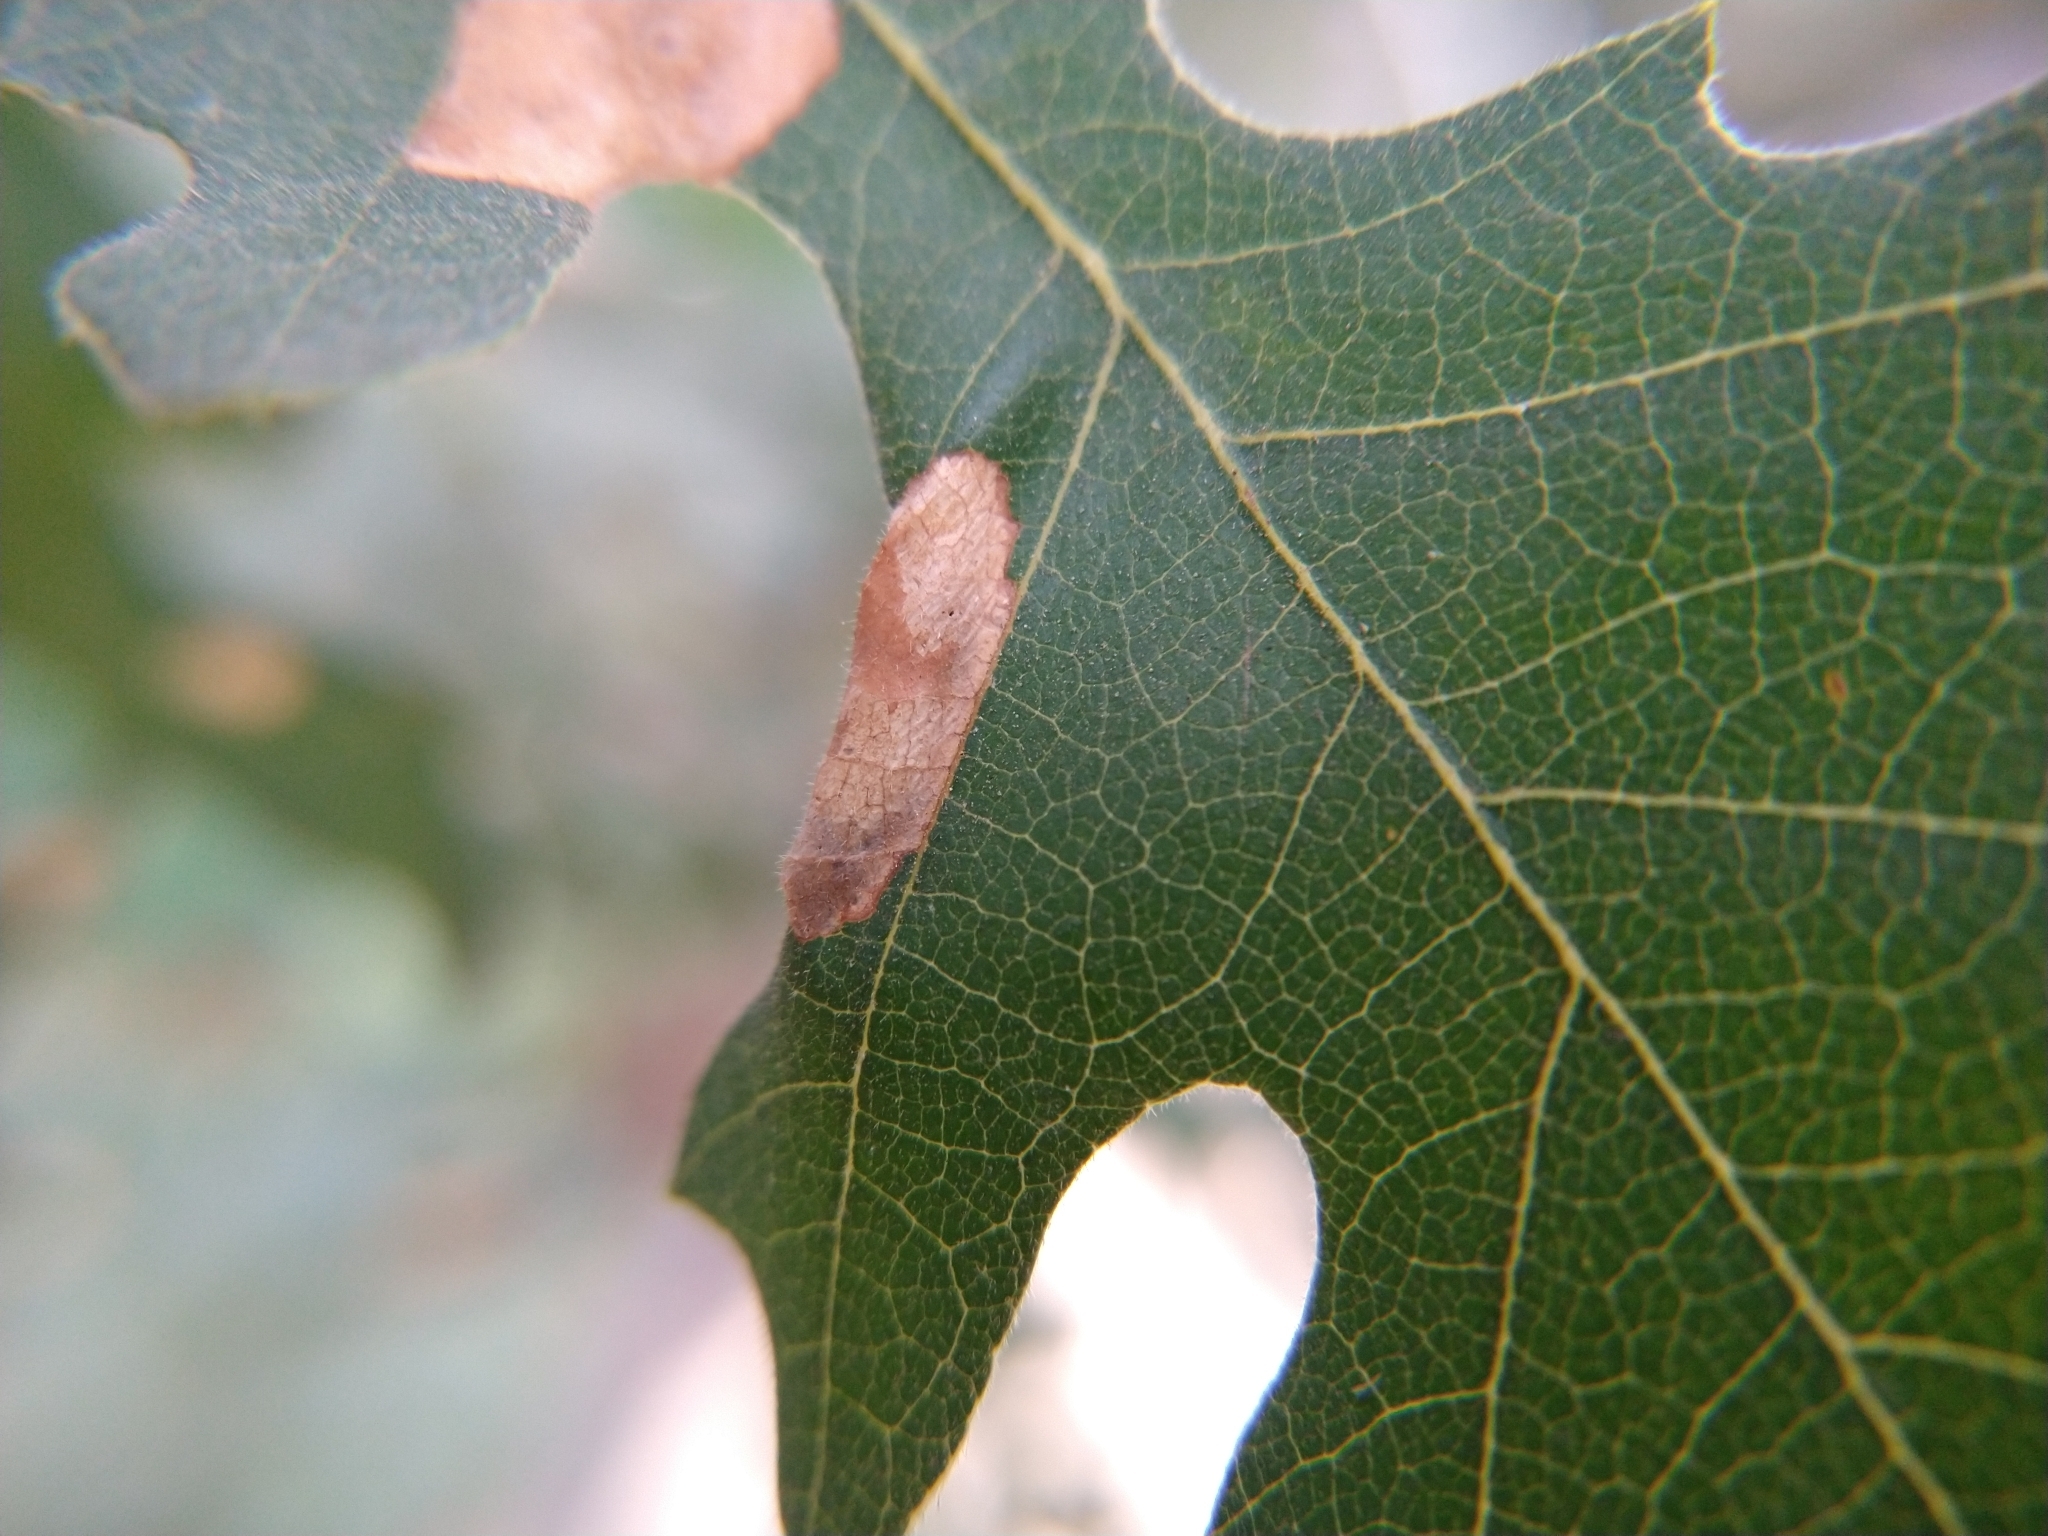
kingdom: Animalia
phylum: Arthropoda
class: Insecta
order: Lepidoptera
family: Gracillariidae
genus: Phyllonorycter
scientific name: Phyllonorycter
